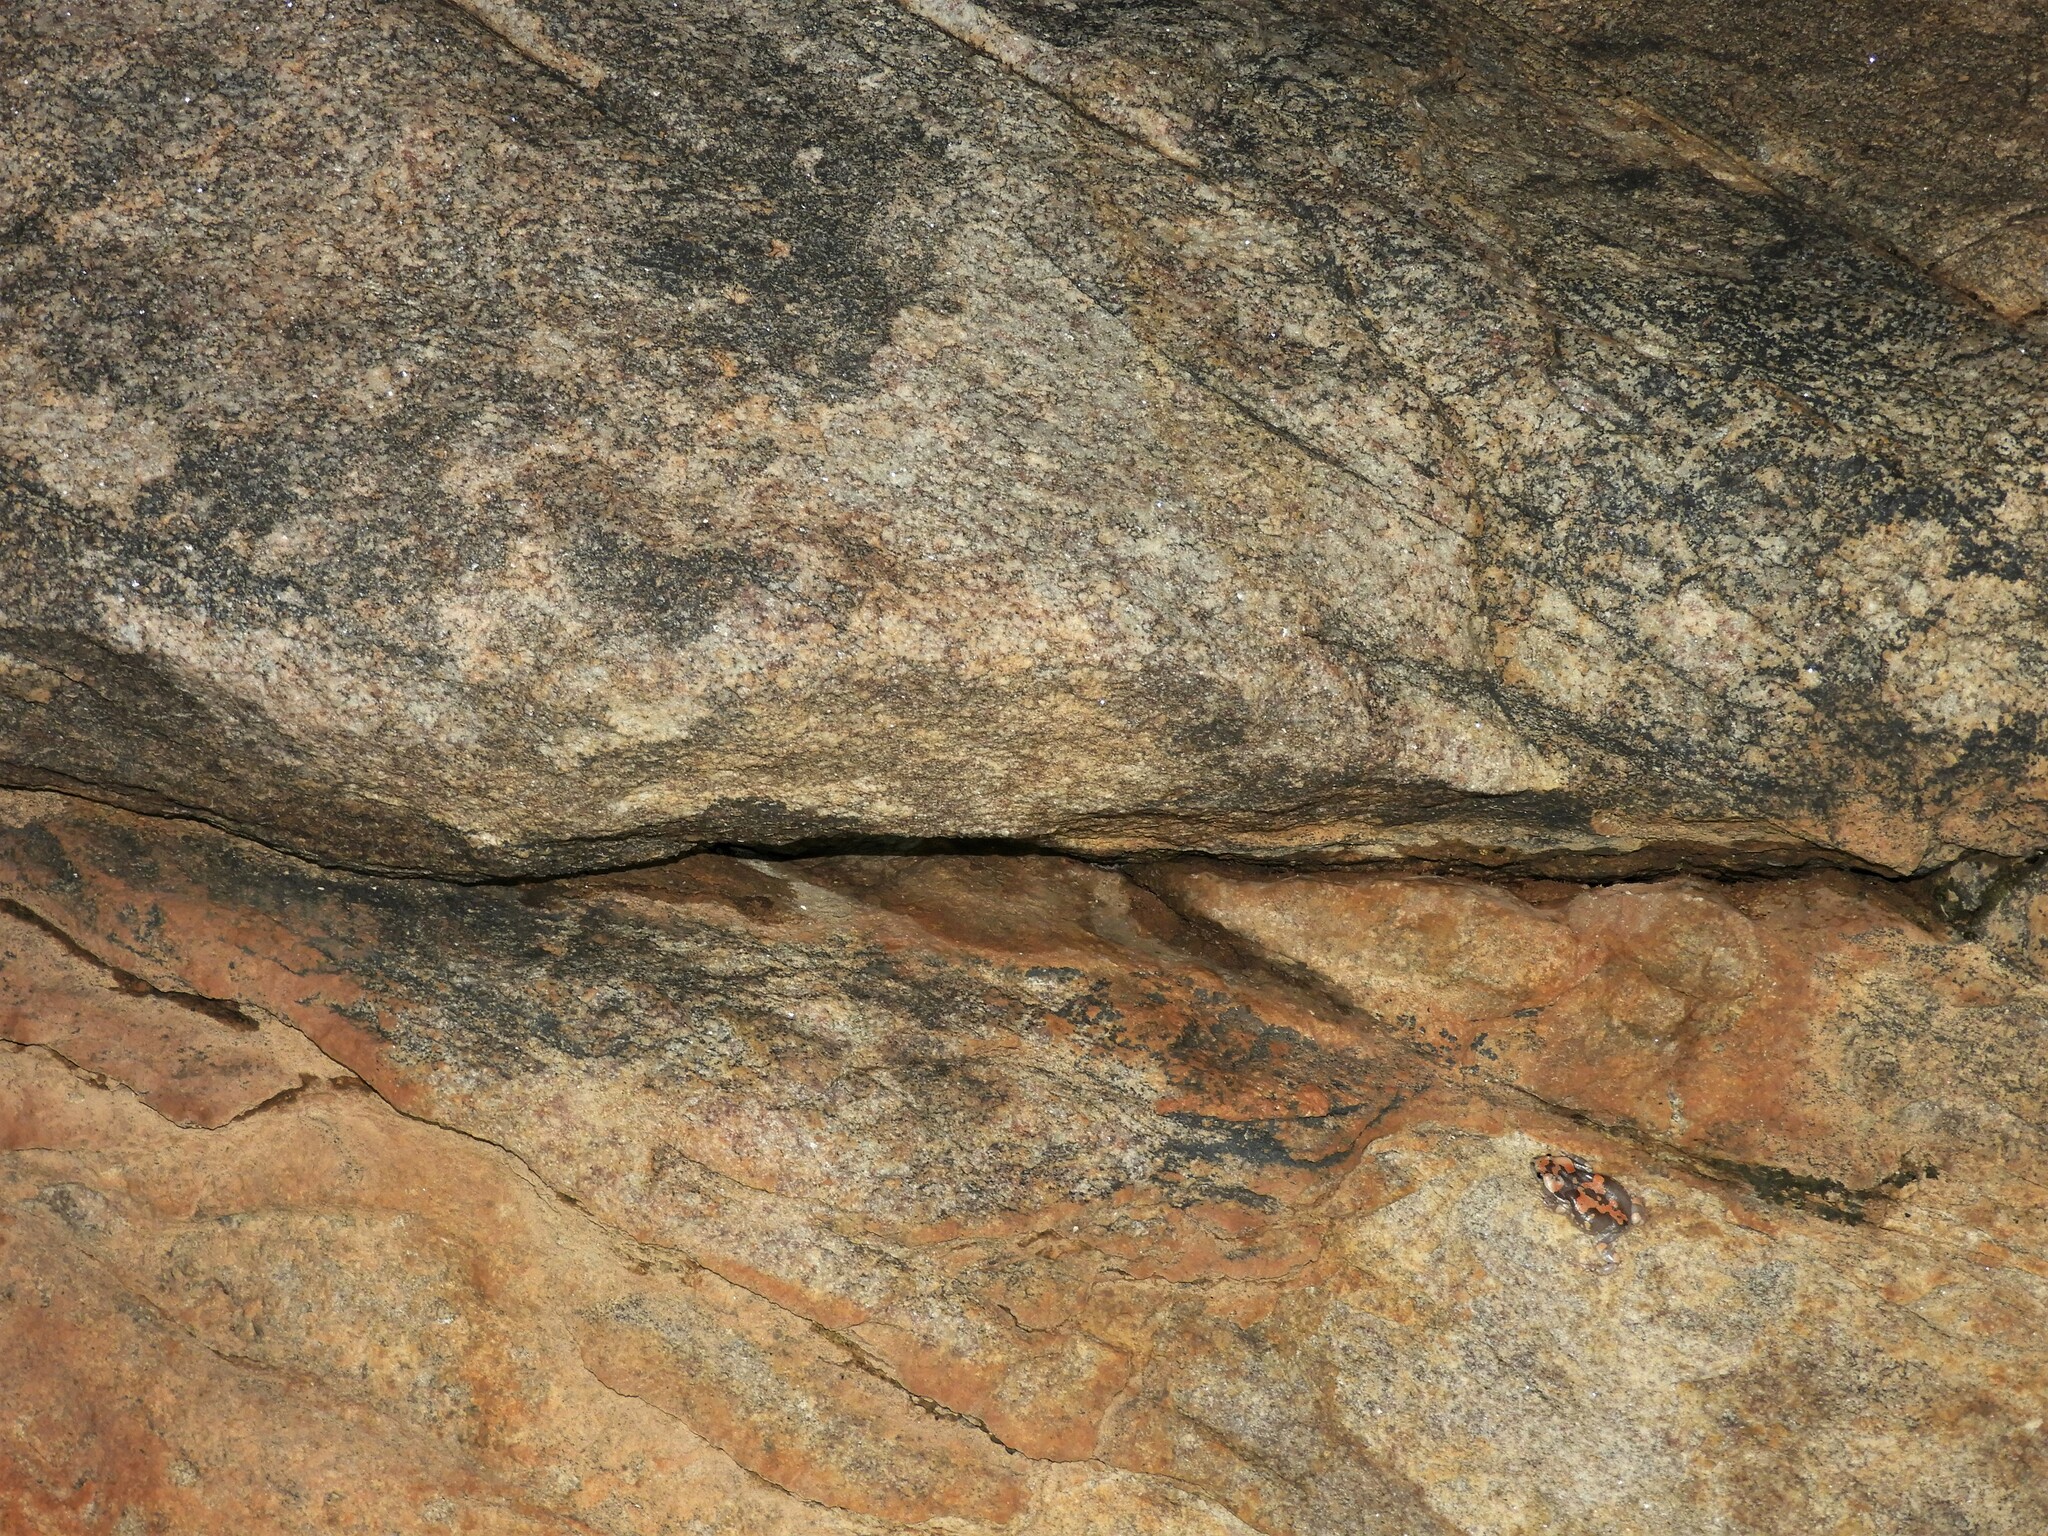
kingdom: Animalia
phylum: Chordata
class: Amphibia
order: Anura
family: Microhylidae
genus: Phrynomantis
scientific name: Phrynomantis annectens
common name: Marbled rubber frog
